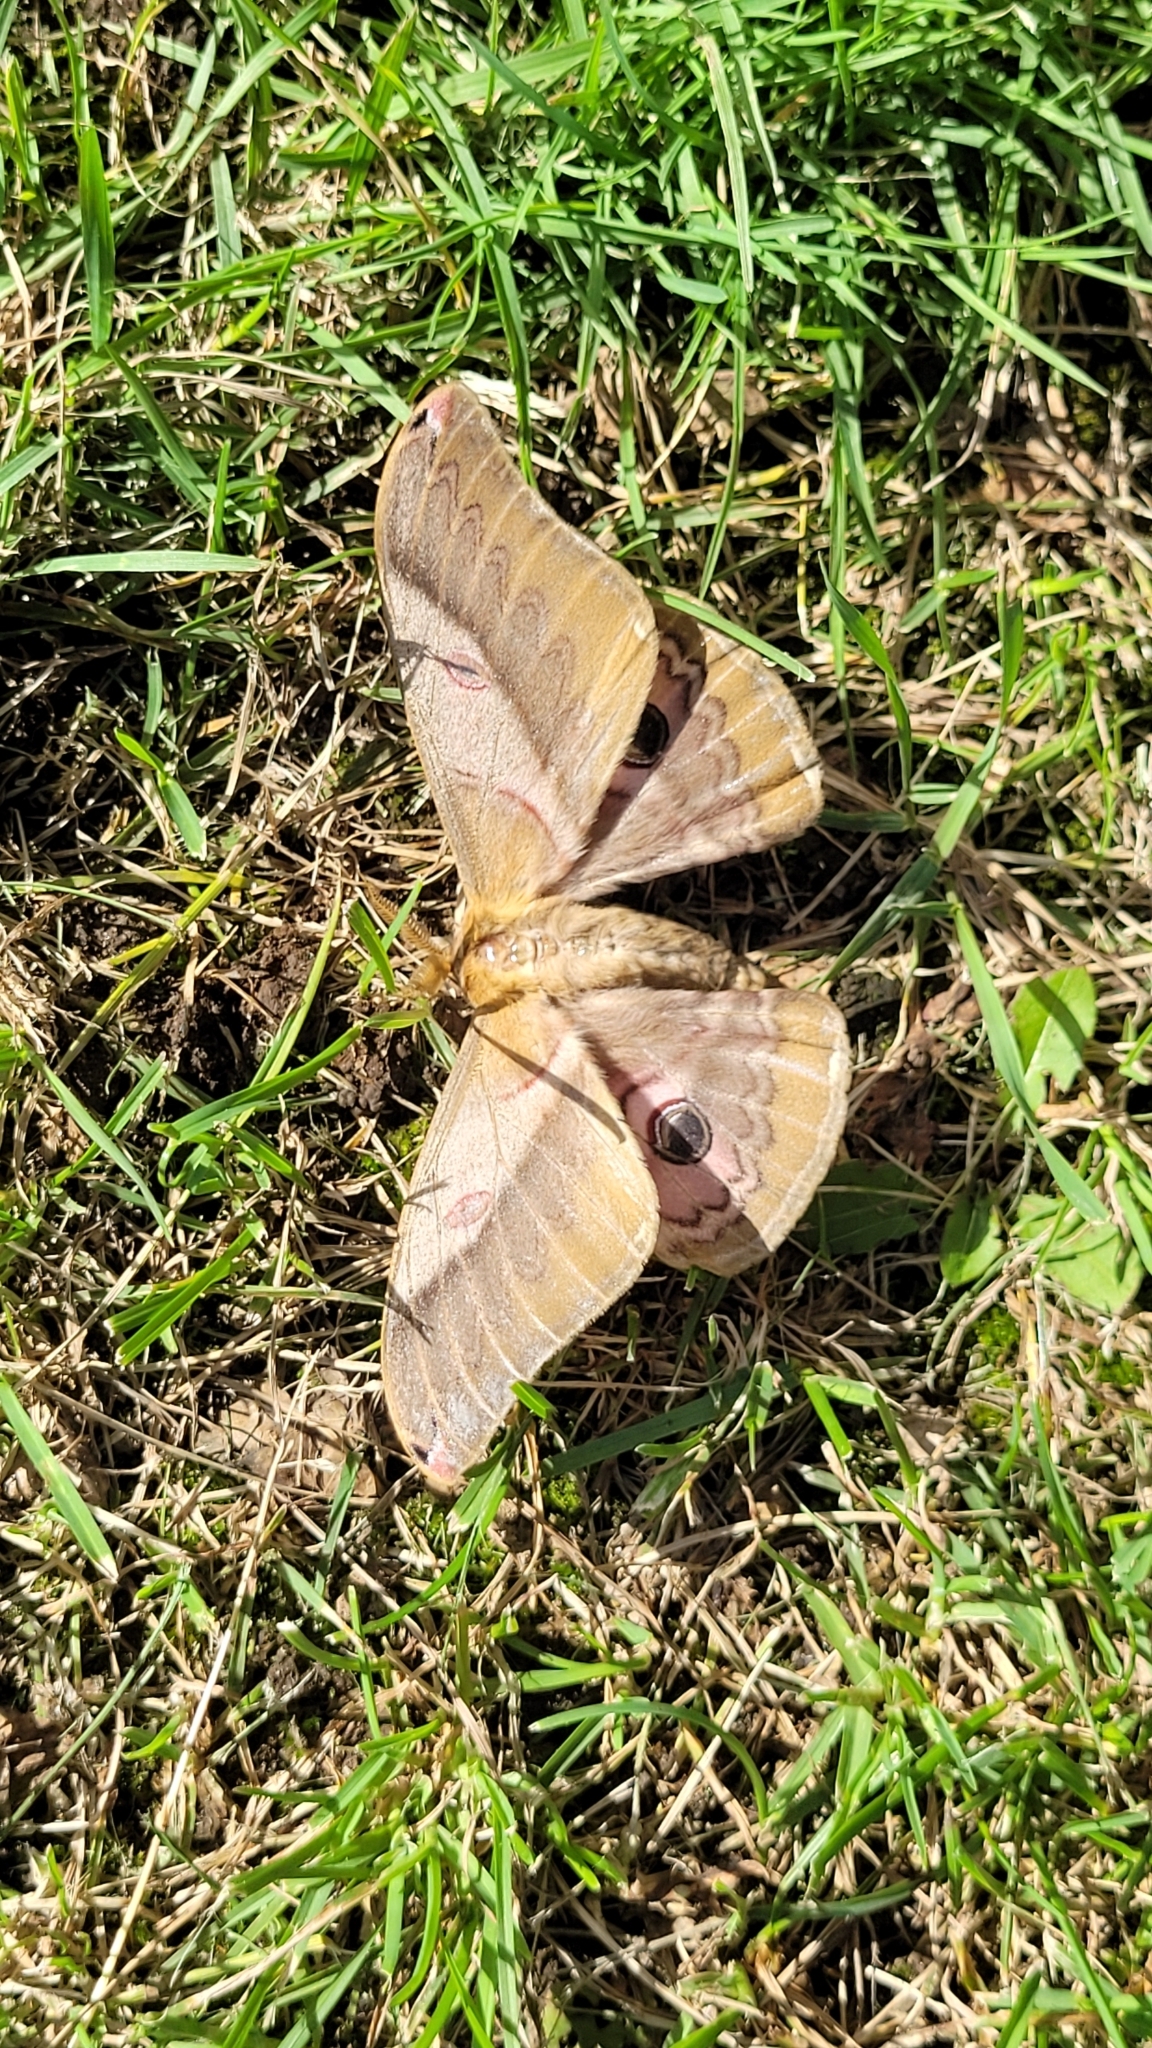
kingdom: Animalia
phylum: Arthropoda
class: Insecta
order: Lepidoptera
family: Saturniidae
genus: Saturnia
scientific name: Saturnia japonica
